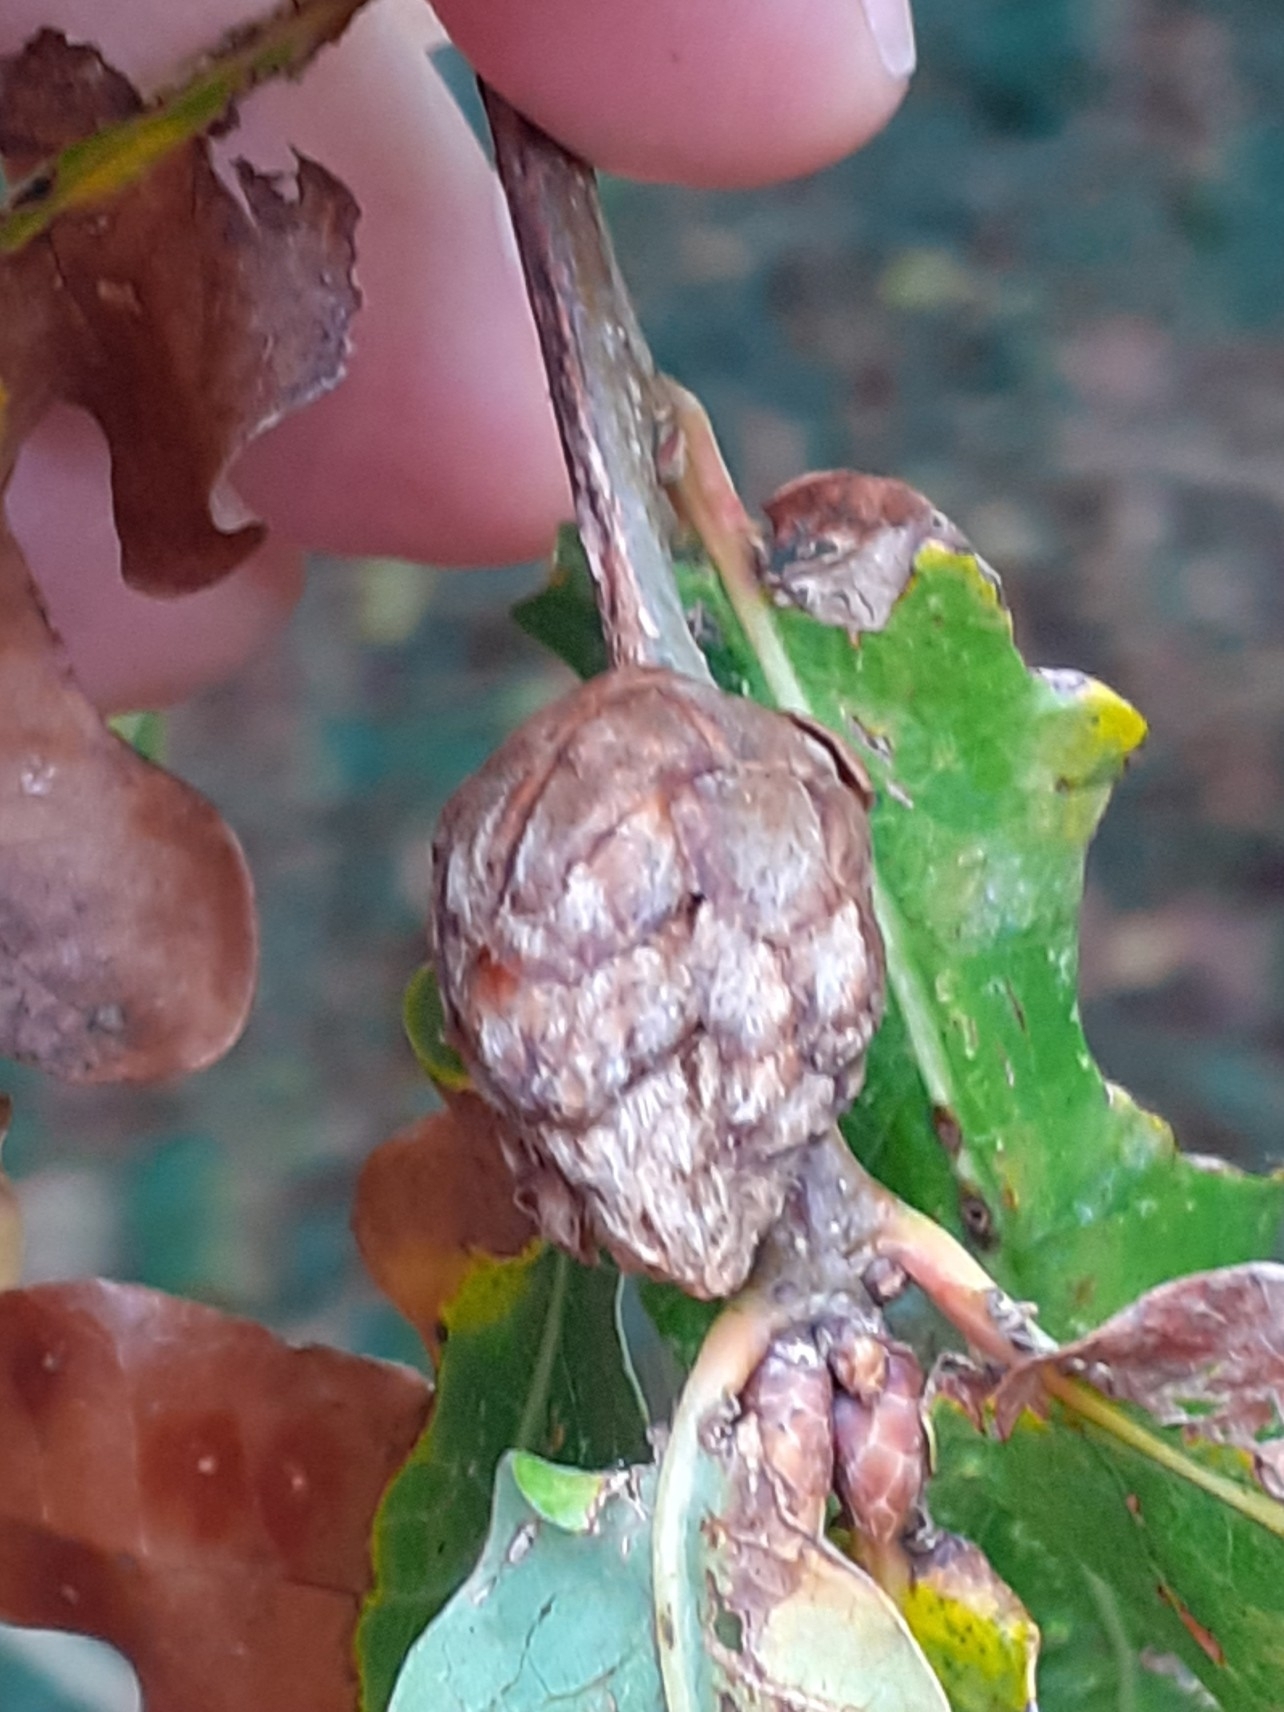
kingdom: Animalia
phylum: Arthropoda
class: Insecta
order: Hymenoptera
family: Cynipidae
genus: Andricus
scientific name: Andricus foecundatrix
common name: Artichoke gall
